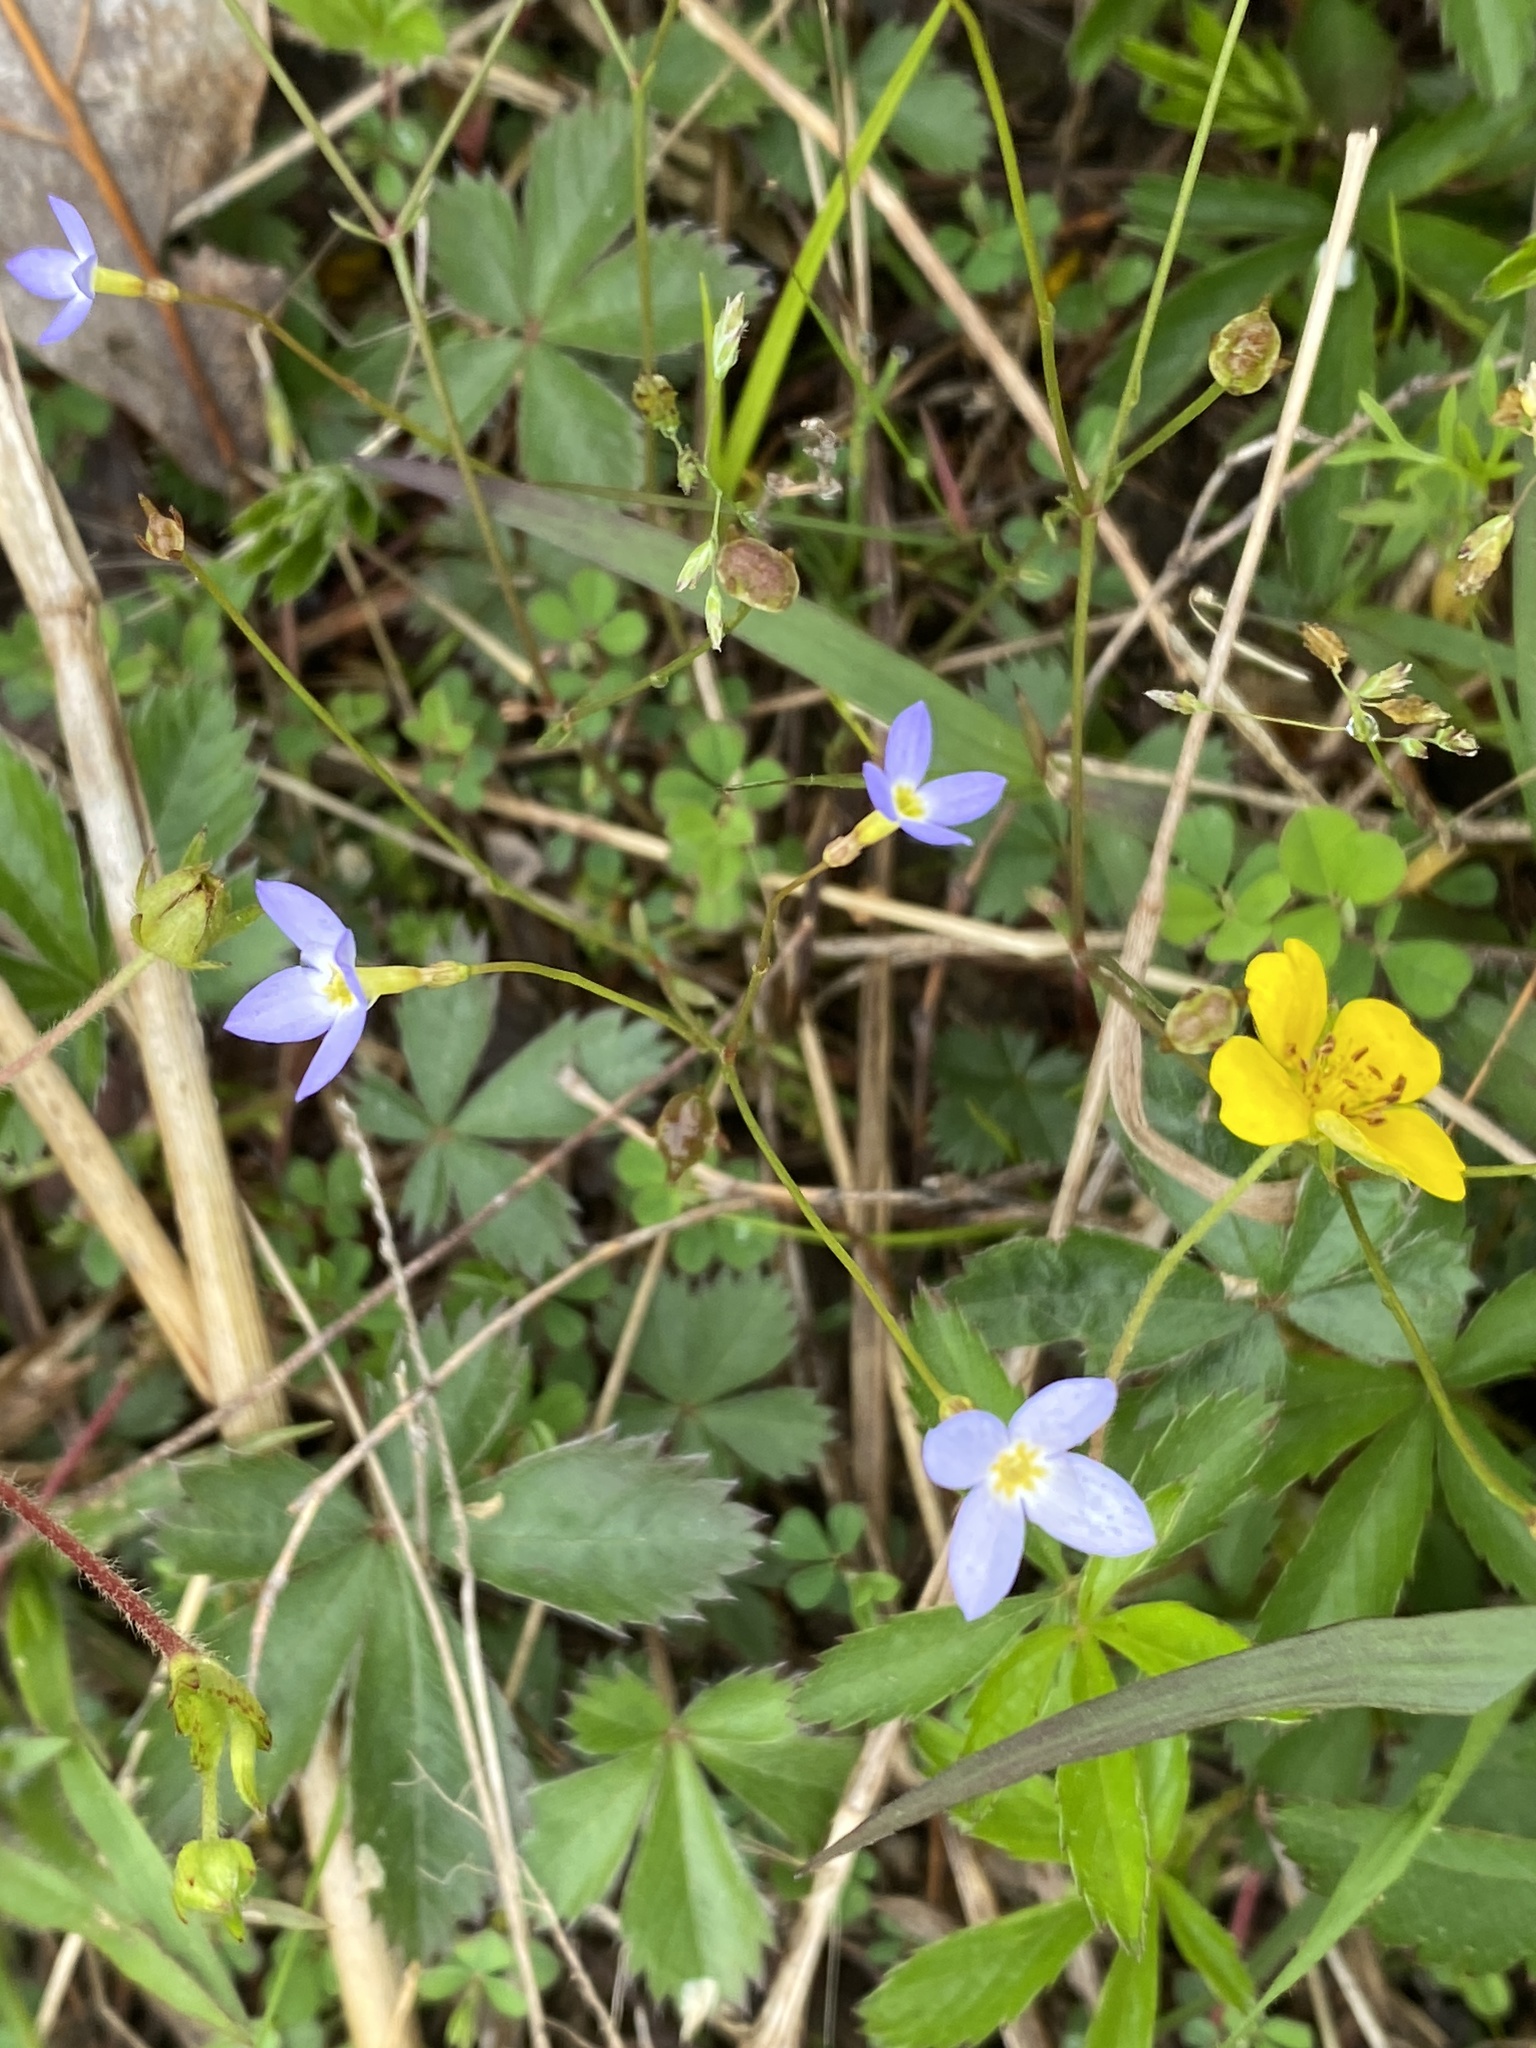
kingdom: Plantae
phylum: Tracheophyta
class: Magnoliopsida
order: Gentianales
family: Rubiaceae
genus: Houstonia
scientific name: Houstonia caerulea
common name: Bluets
